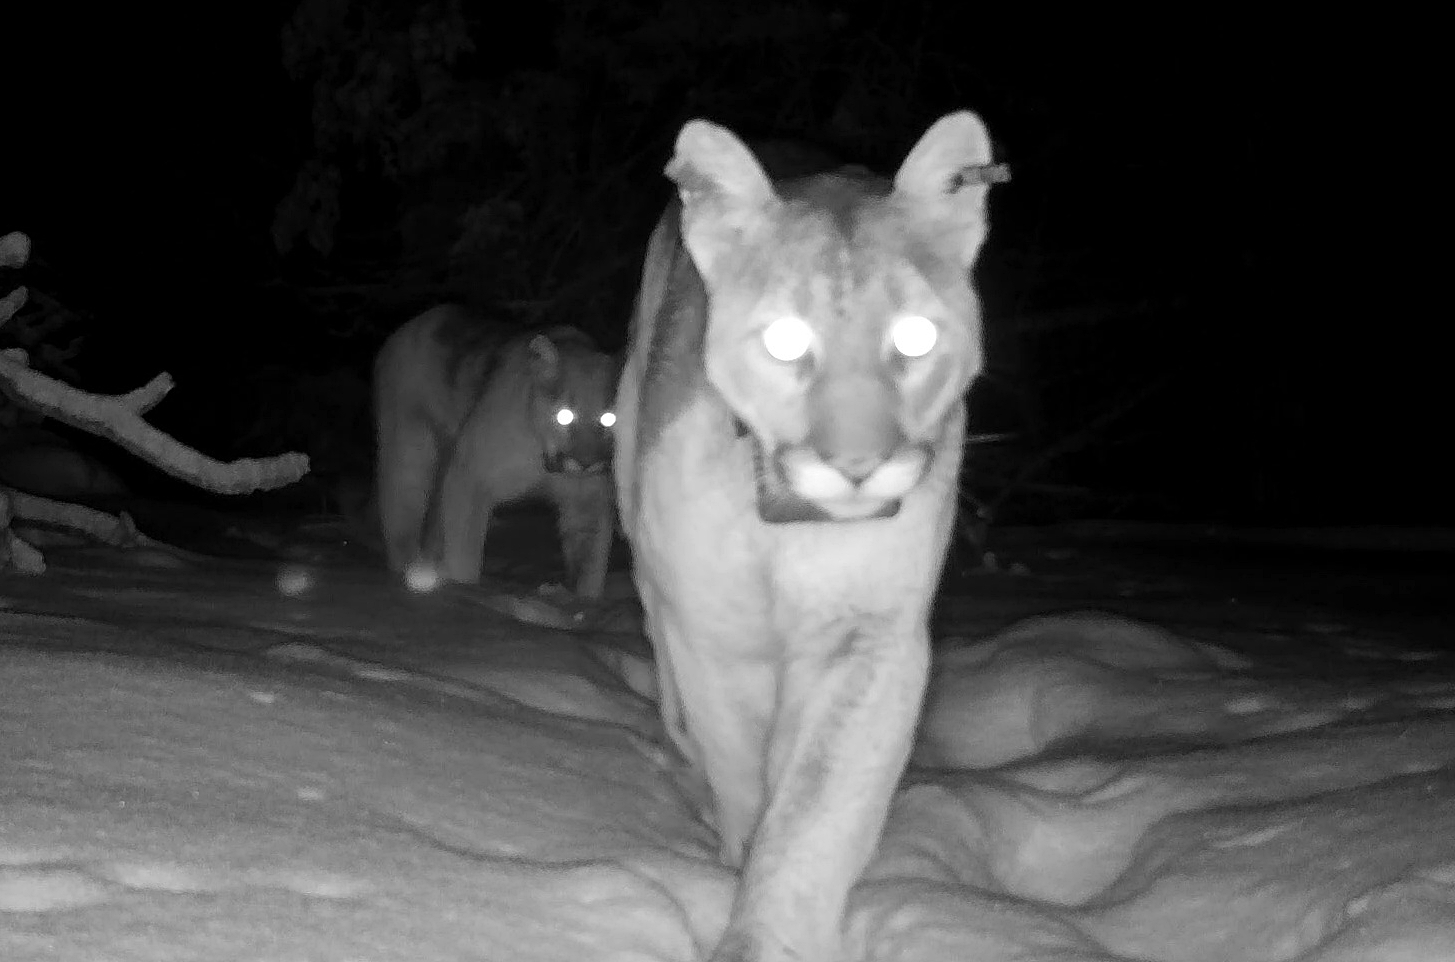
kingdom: Animalia
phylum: Chordata
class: Mammalia
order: Carnivora
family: Felidae
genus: Puma
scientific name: Puma concolor
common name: Puma
